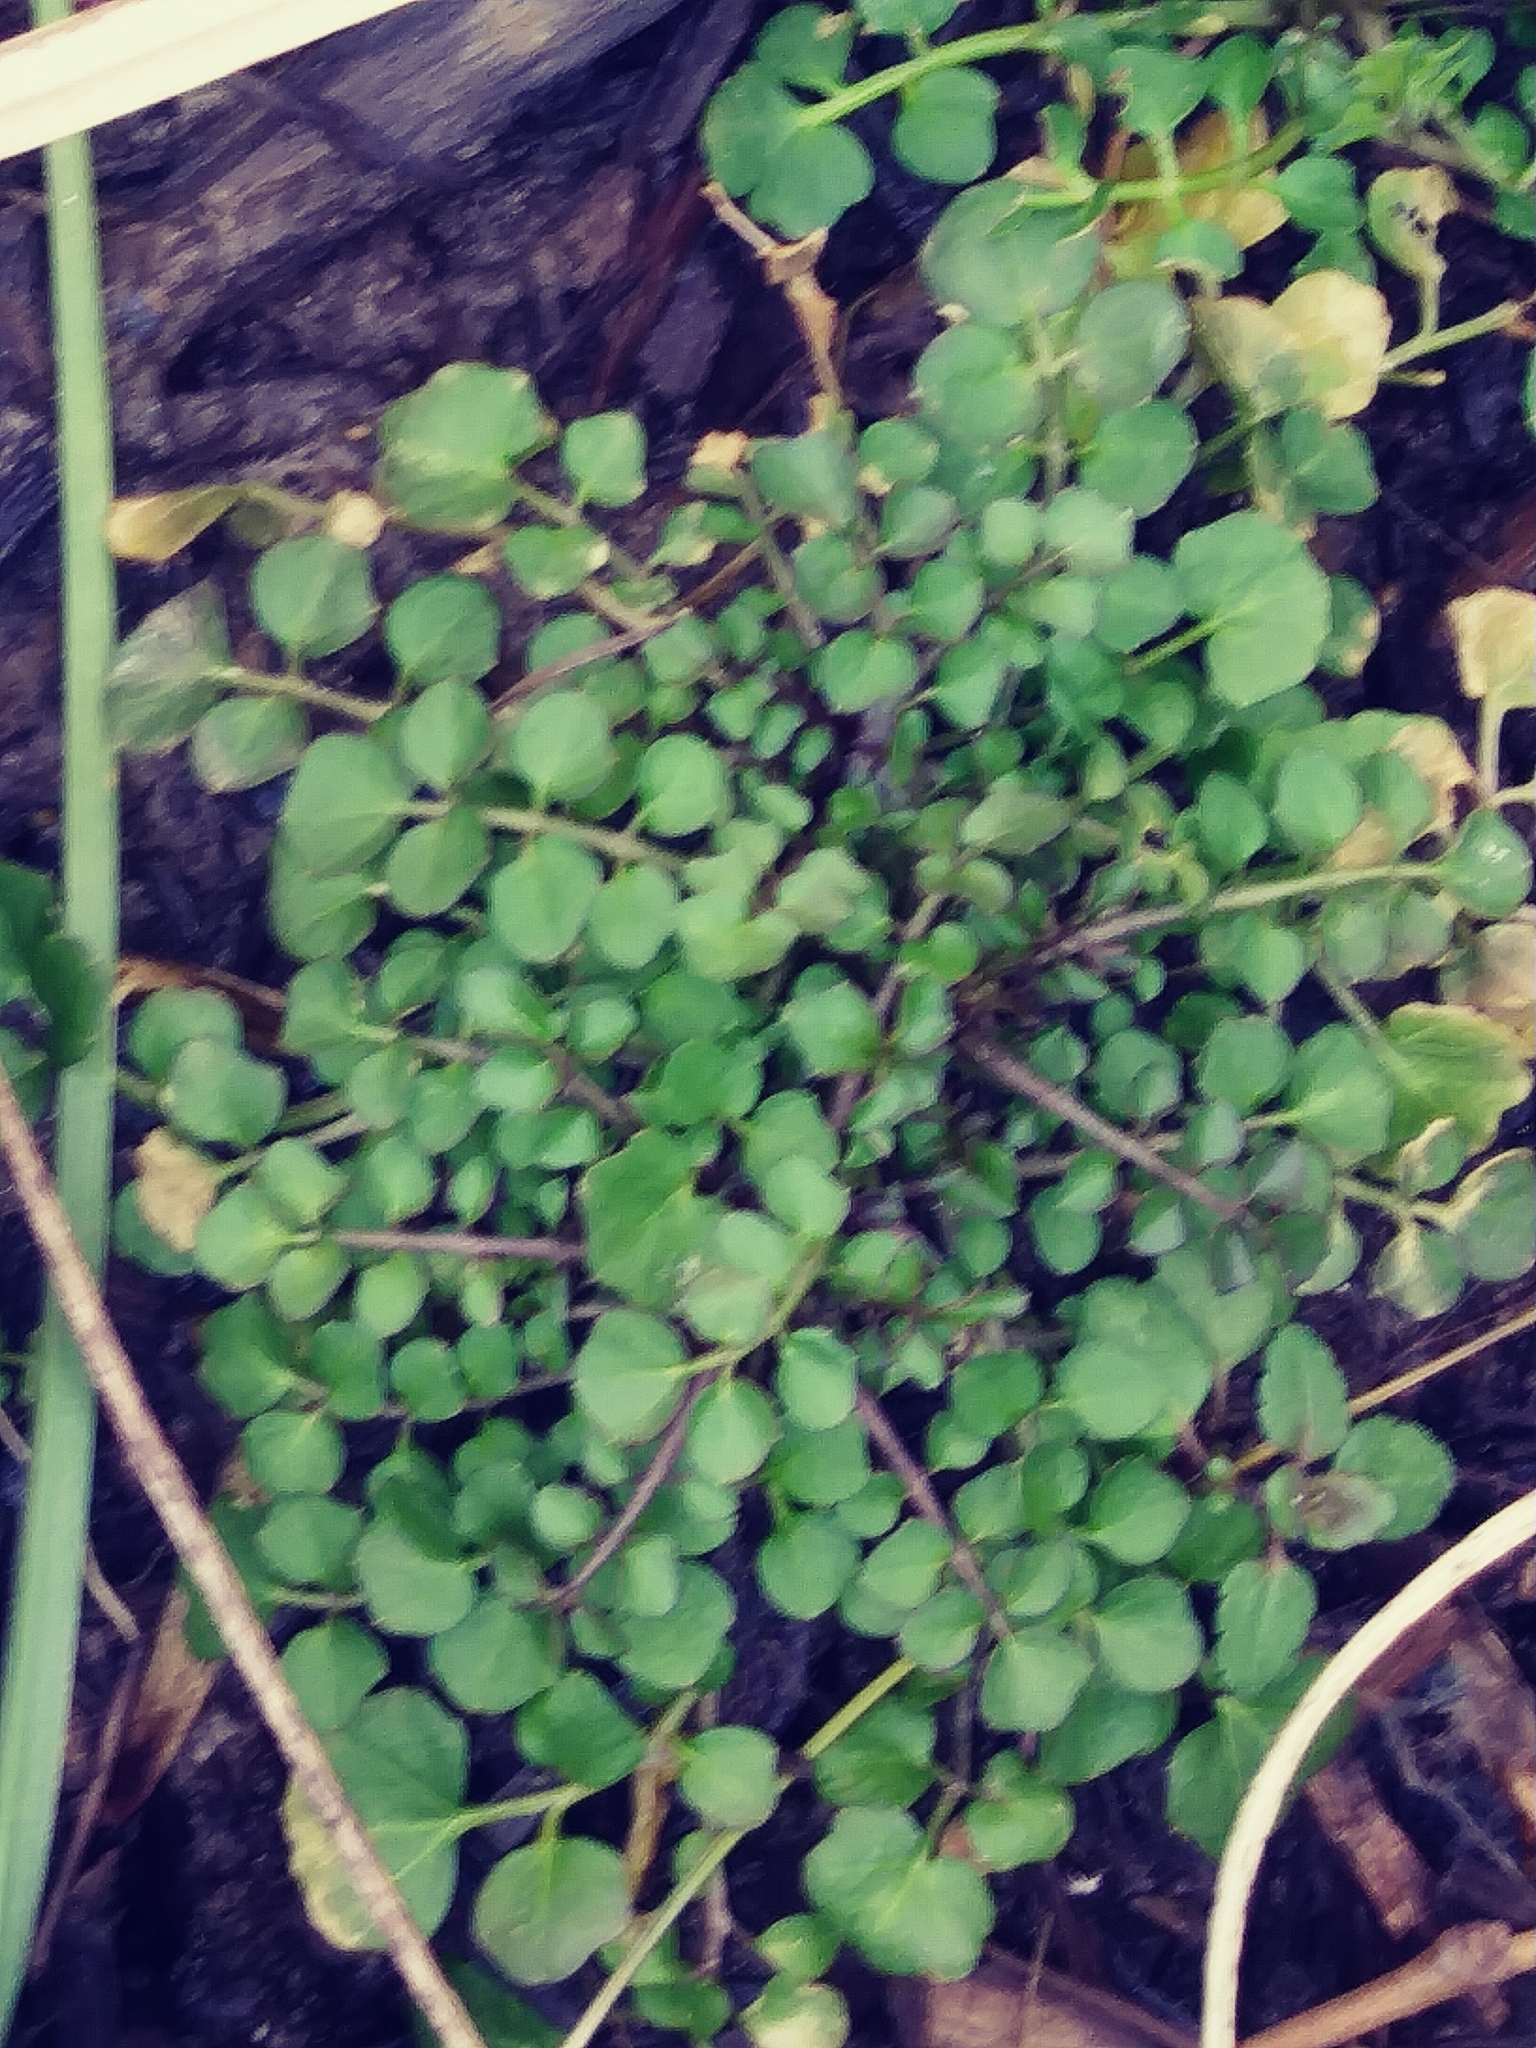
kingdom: Plantae
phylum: Tracheophyta
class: Magnoliopsida
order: Brassicales
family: Brassicaceae
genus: Cardamine
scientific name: Cardamine hirsuta
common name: Hairy bittercress
